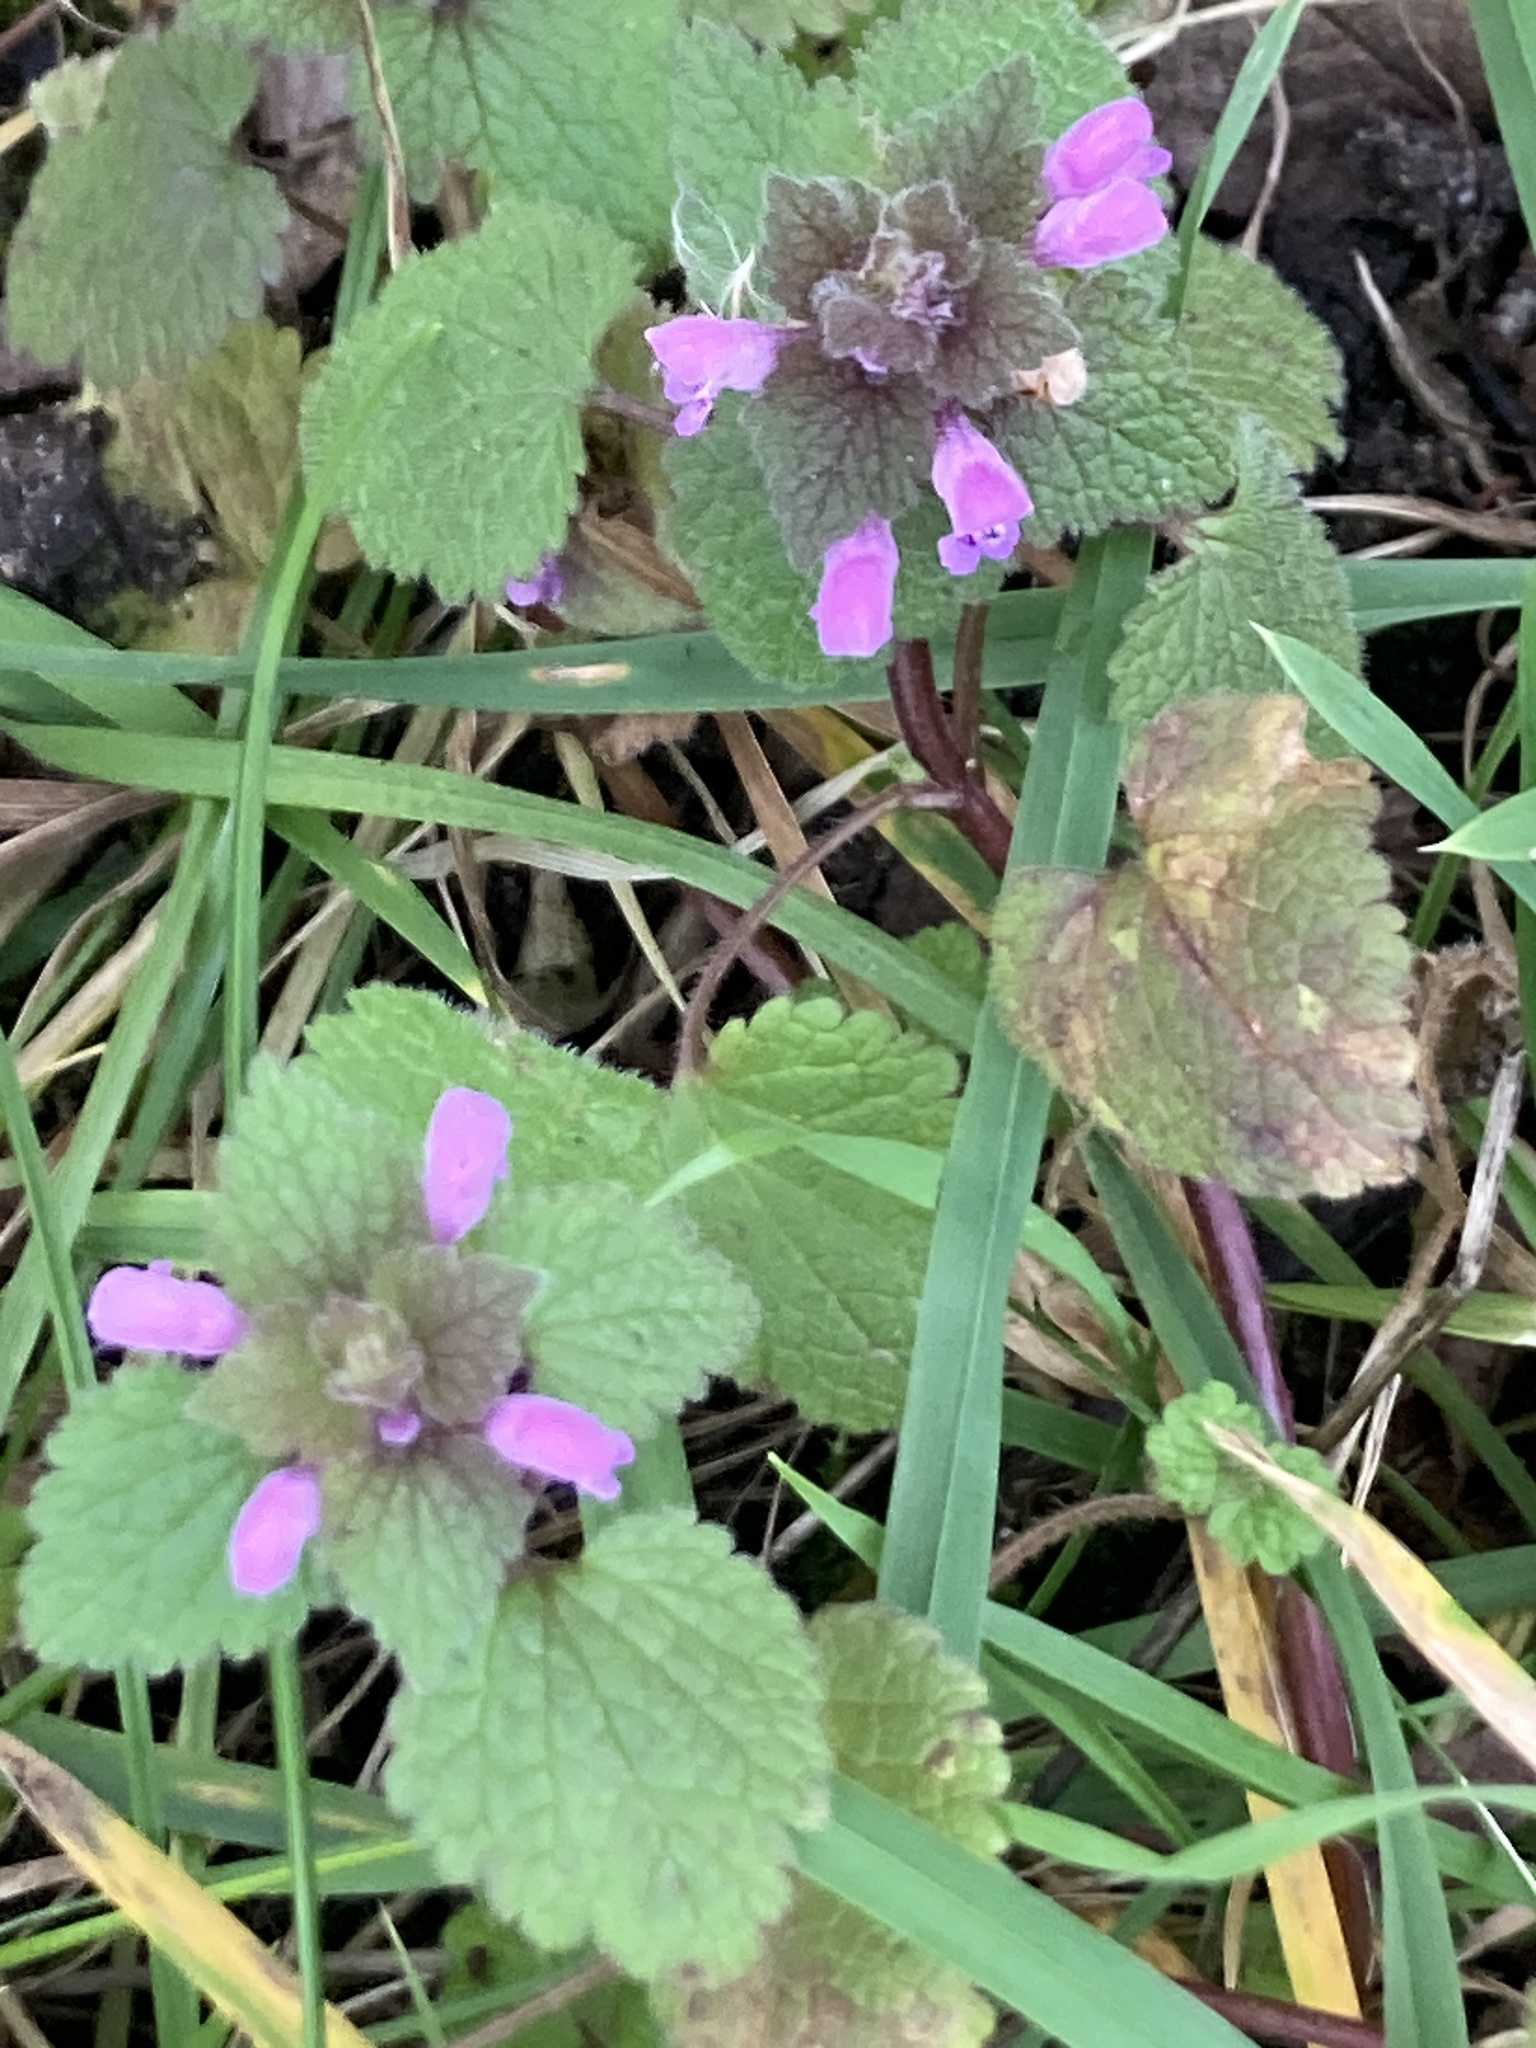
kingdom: Plantae
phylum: Tracheophyta
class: Magnoliopsida
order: Lamiales
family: Lamiaceae
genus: Lamium
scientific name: Lamium purpureum
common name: Red dead-nettle
